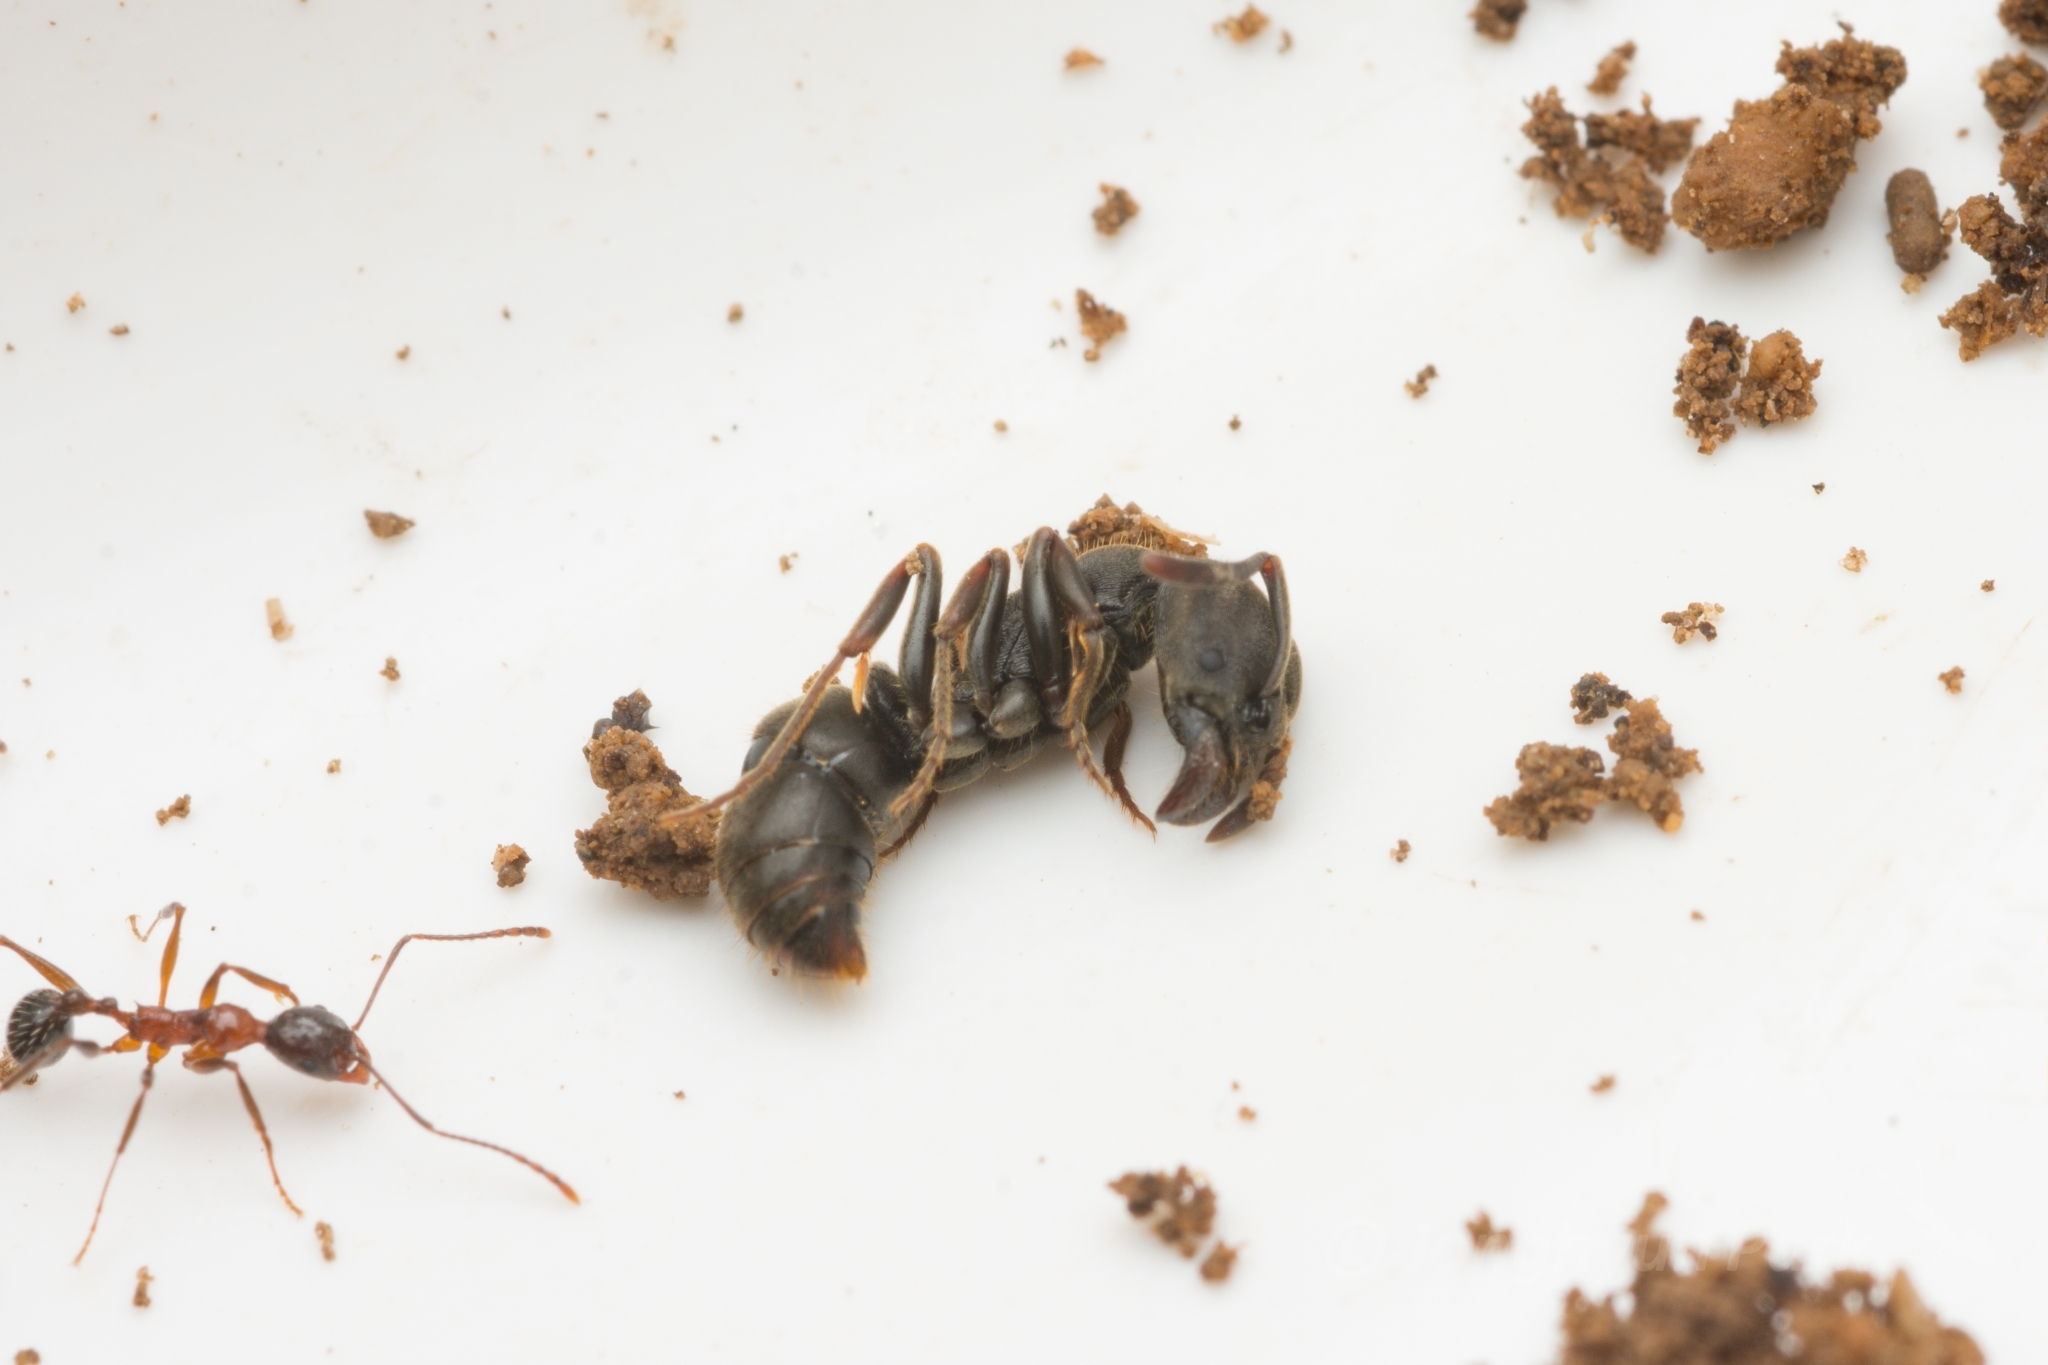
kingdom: Animalia
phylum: Arthropoda
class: Insecta
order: Hymenoptera
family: Formicidae
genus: Ectomomyrmex
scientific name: Ectomomyrmex javanus
